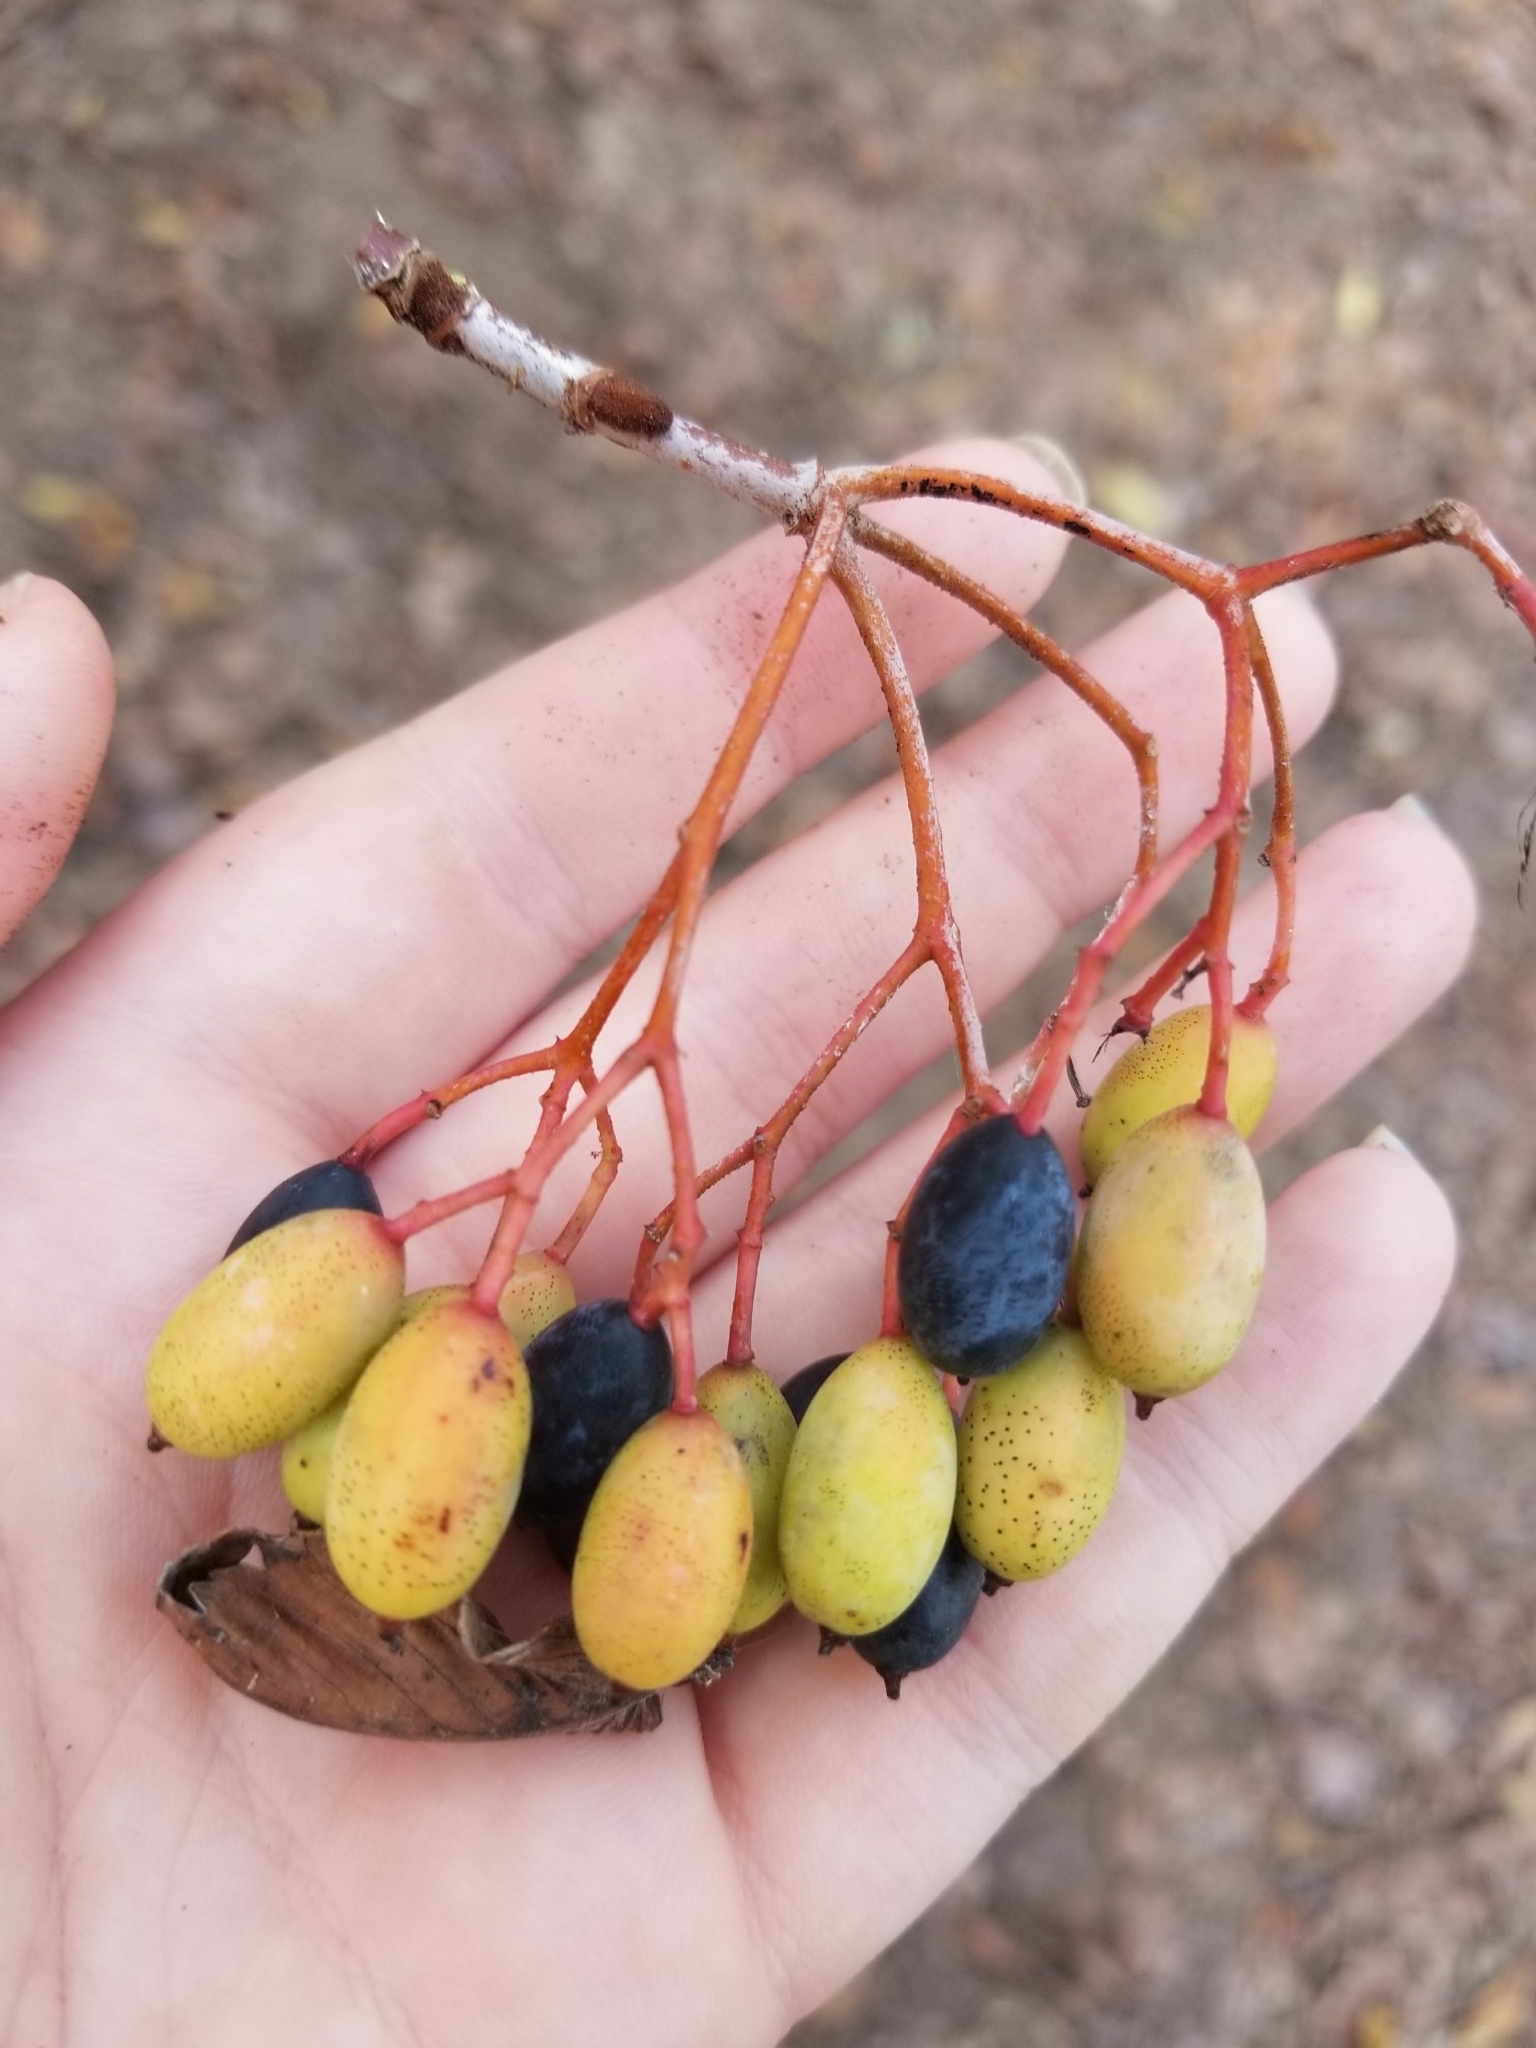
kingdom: Plantae
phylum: Tracheophyta
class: Magnoliopsida
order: Dipsacales
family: Viburnaceae
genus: Viburnum
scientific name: Viburnum rufidulum
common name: Blue haw
